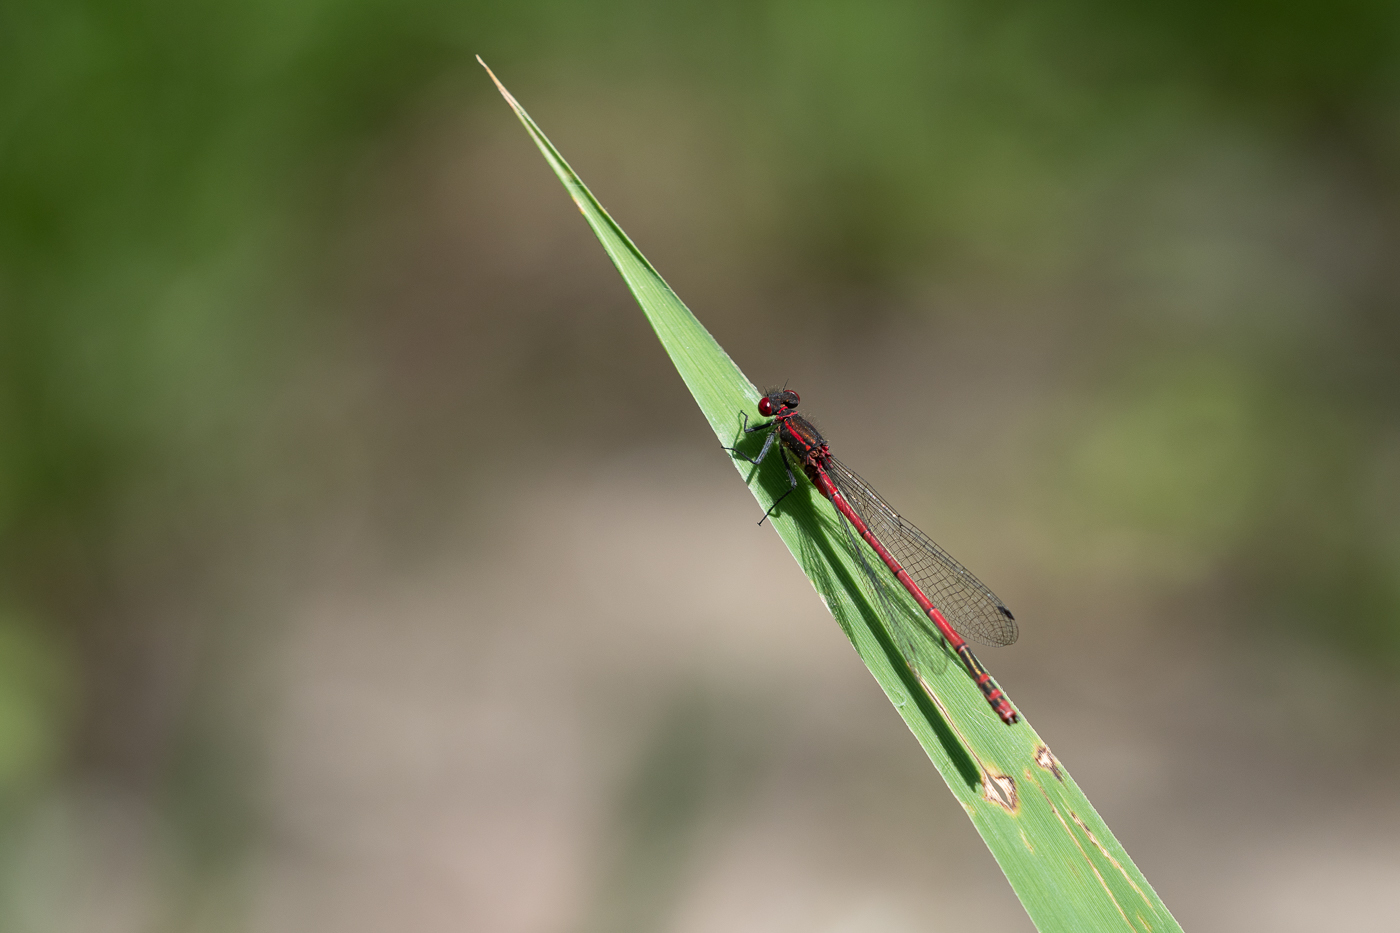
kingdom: Animalia
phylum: Arthropoda
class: Insecta
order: Odonata
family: Coenagrionidae
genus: Pyrrhosoma
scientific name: Pyrrhosoma nymphula
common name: Large red damsel
